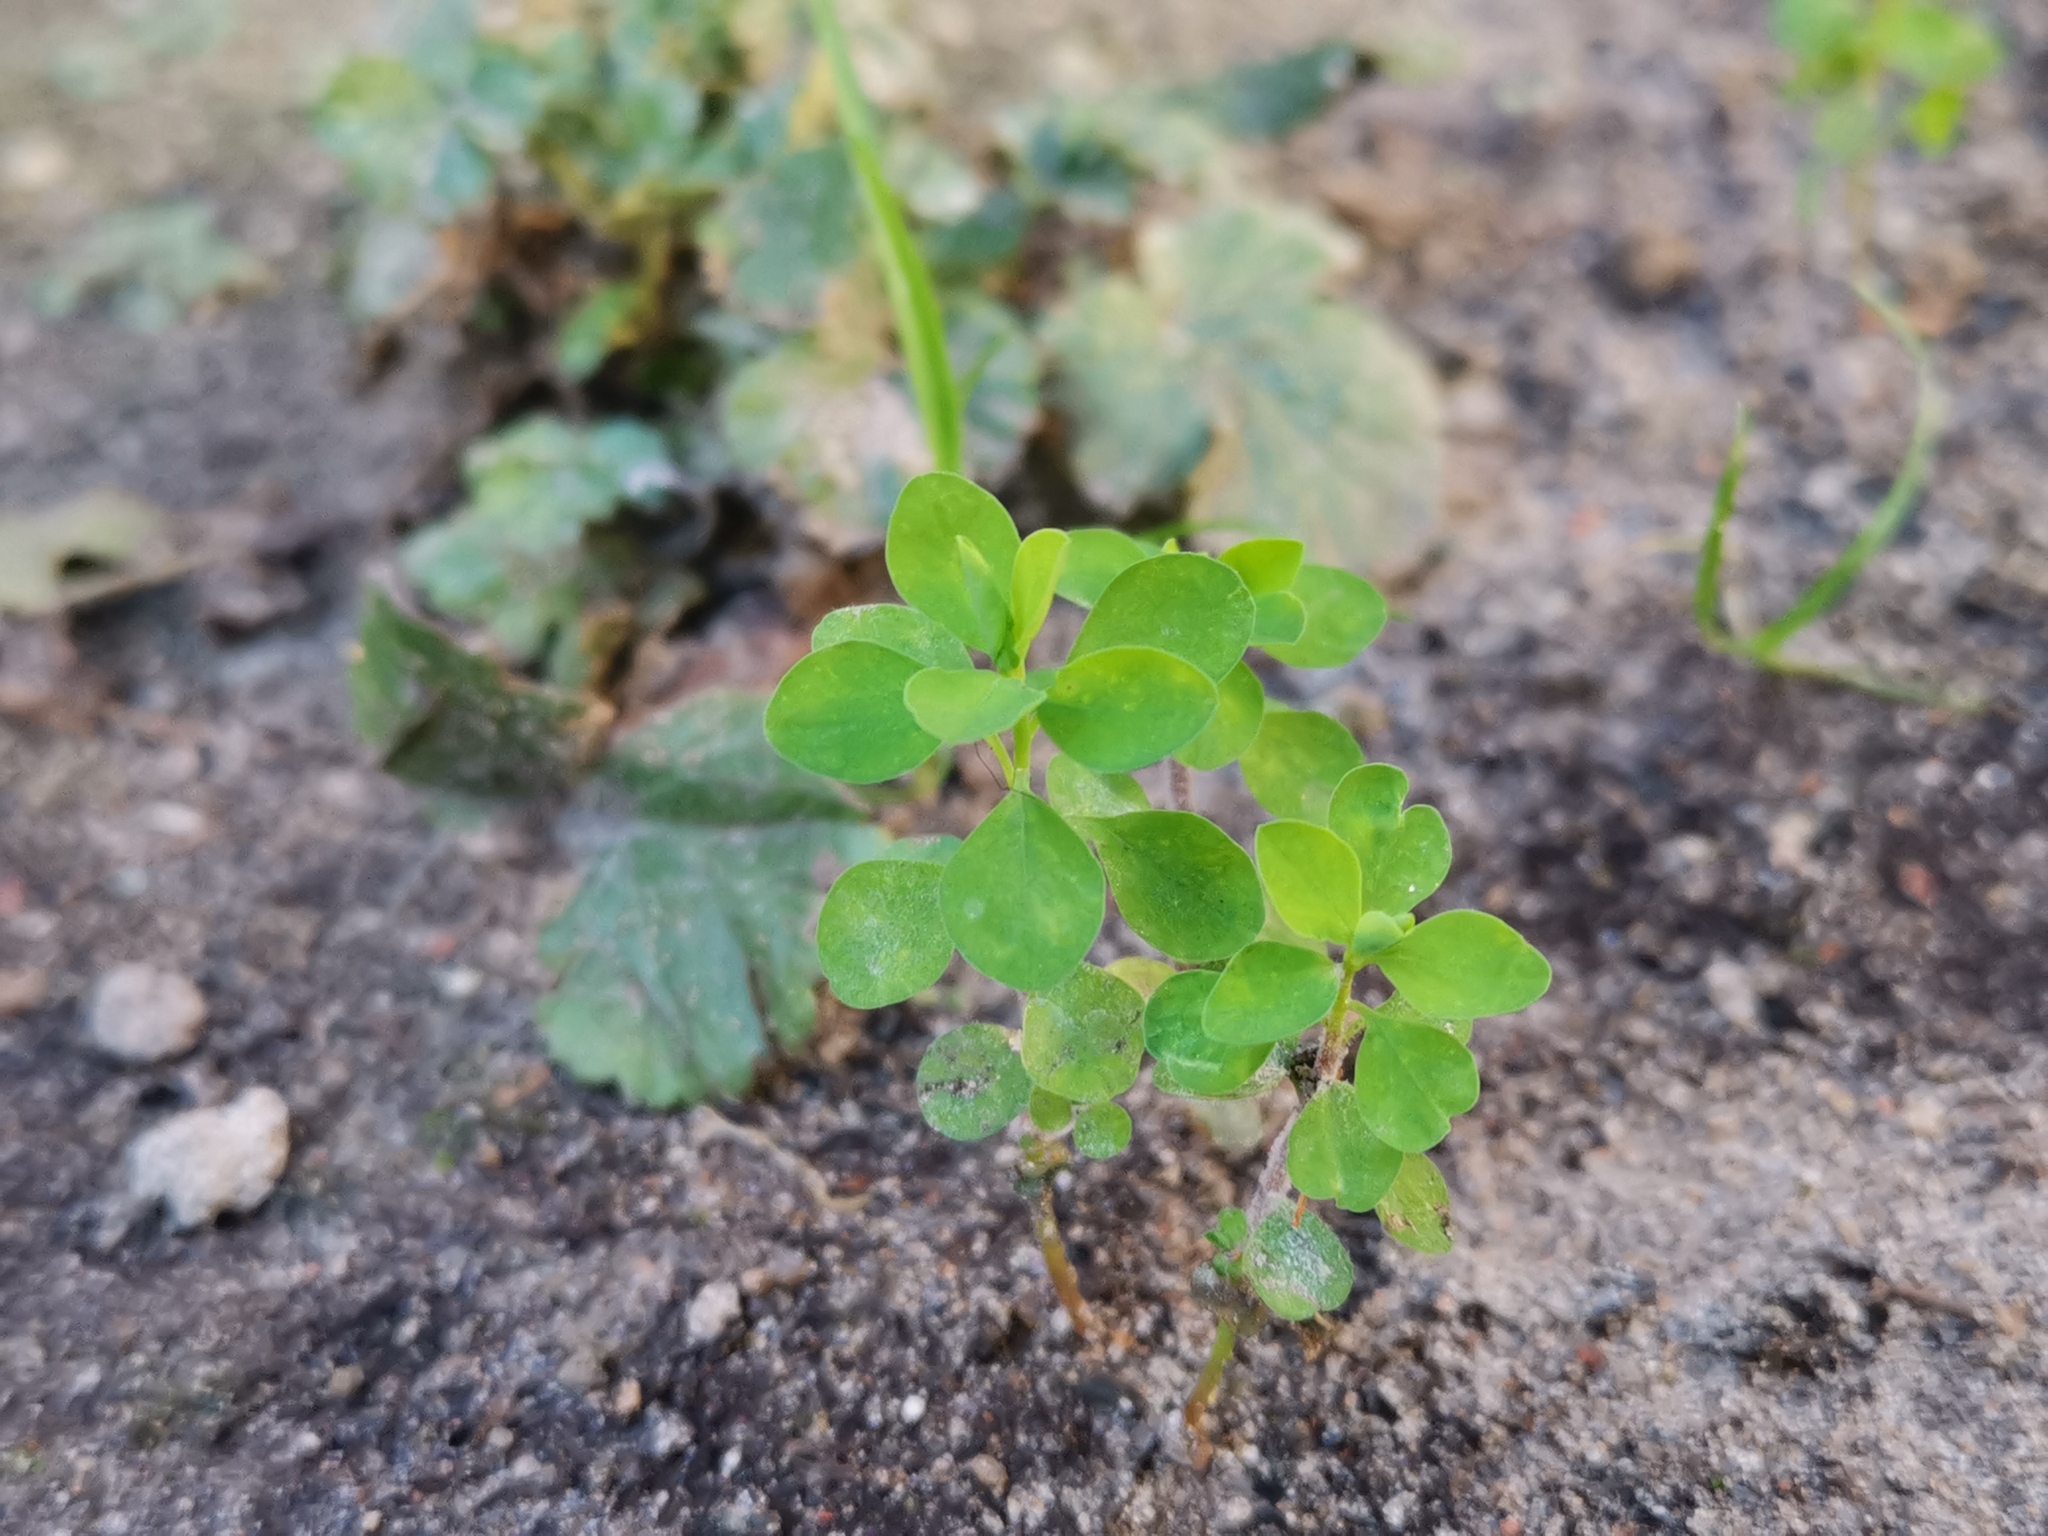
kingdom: Plantae
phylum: Tracheophyta
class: Magnoliopsida
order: Malpighiales
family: Euphorbiaceae
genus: Euphorbia
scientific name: Euphorbia peplus
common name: Petty spurge
